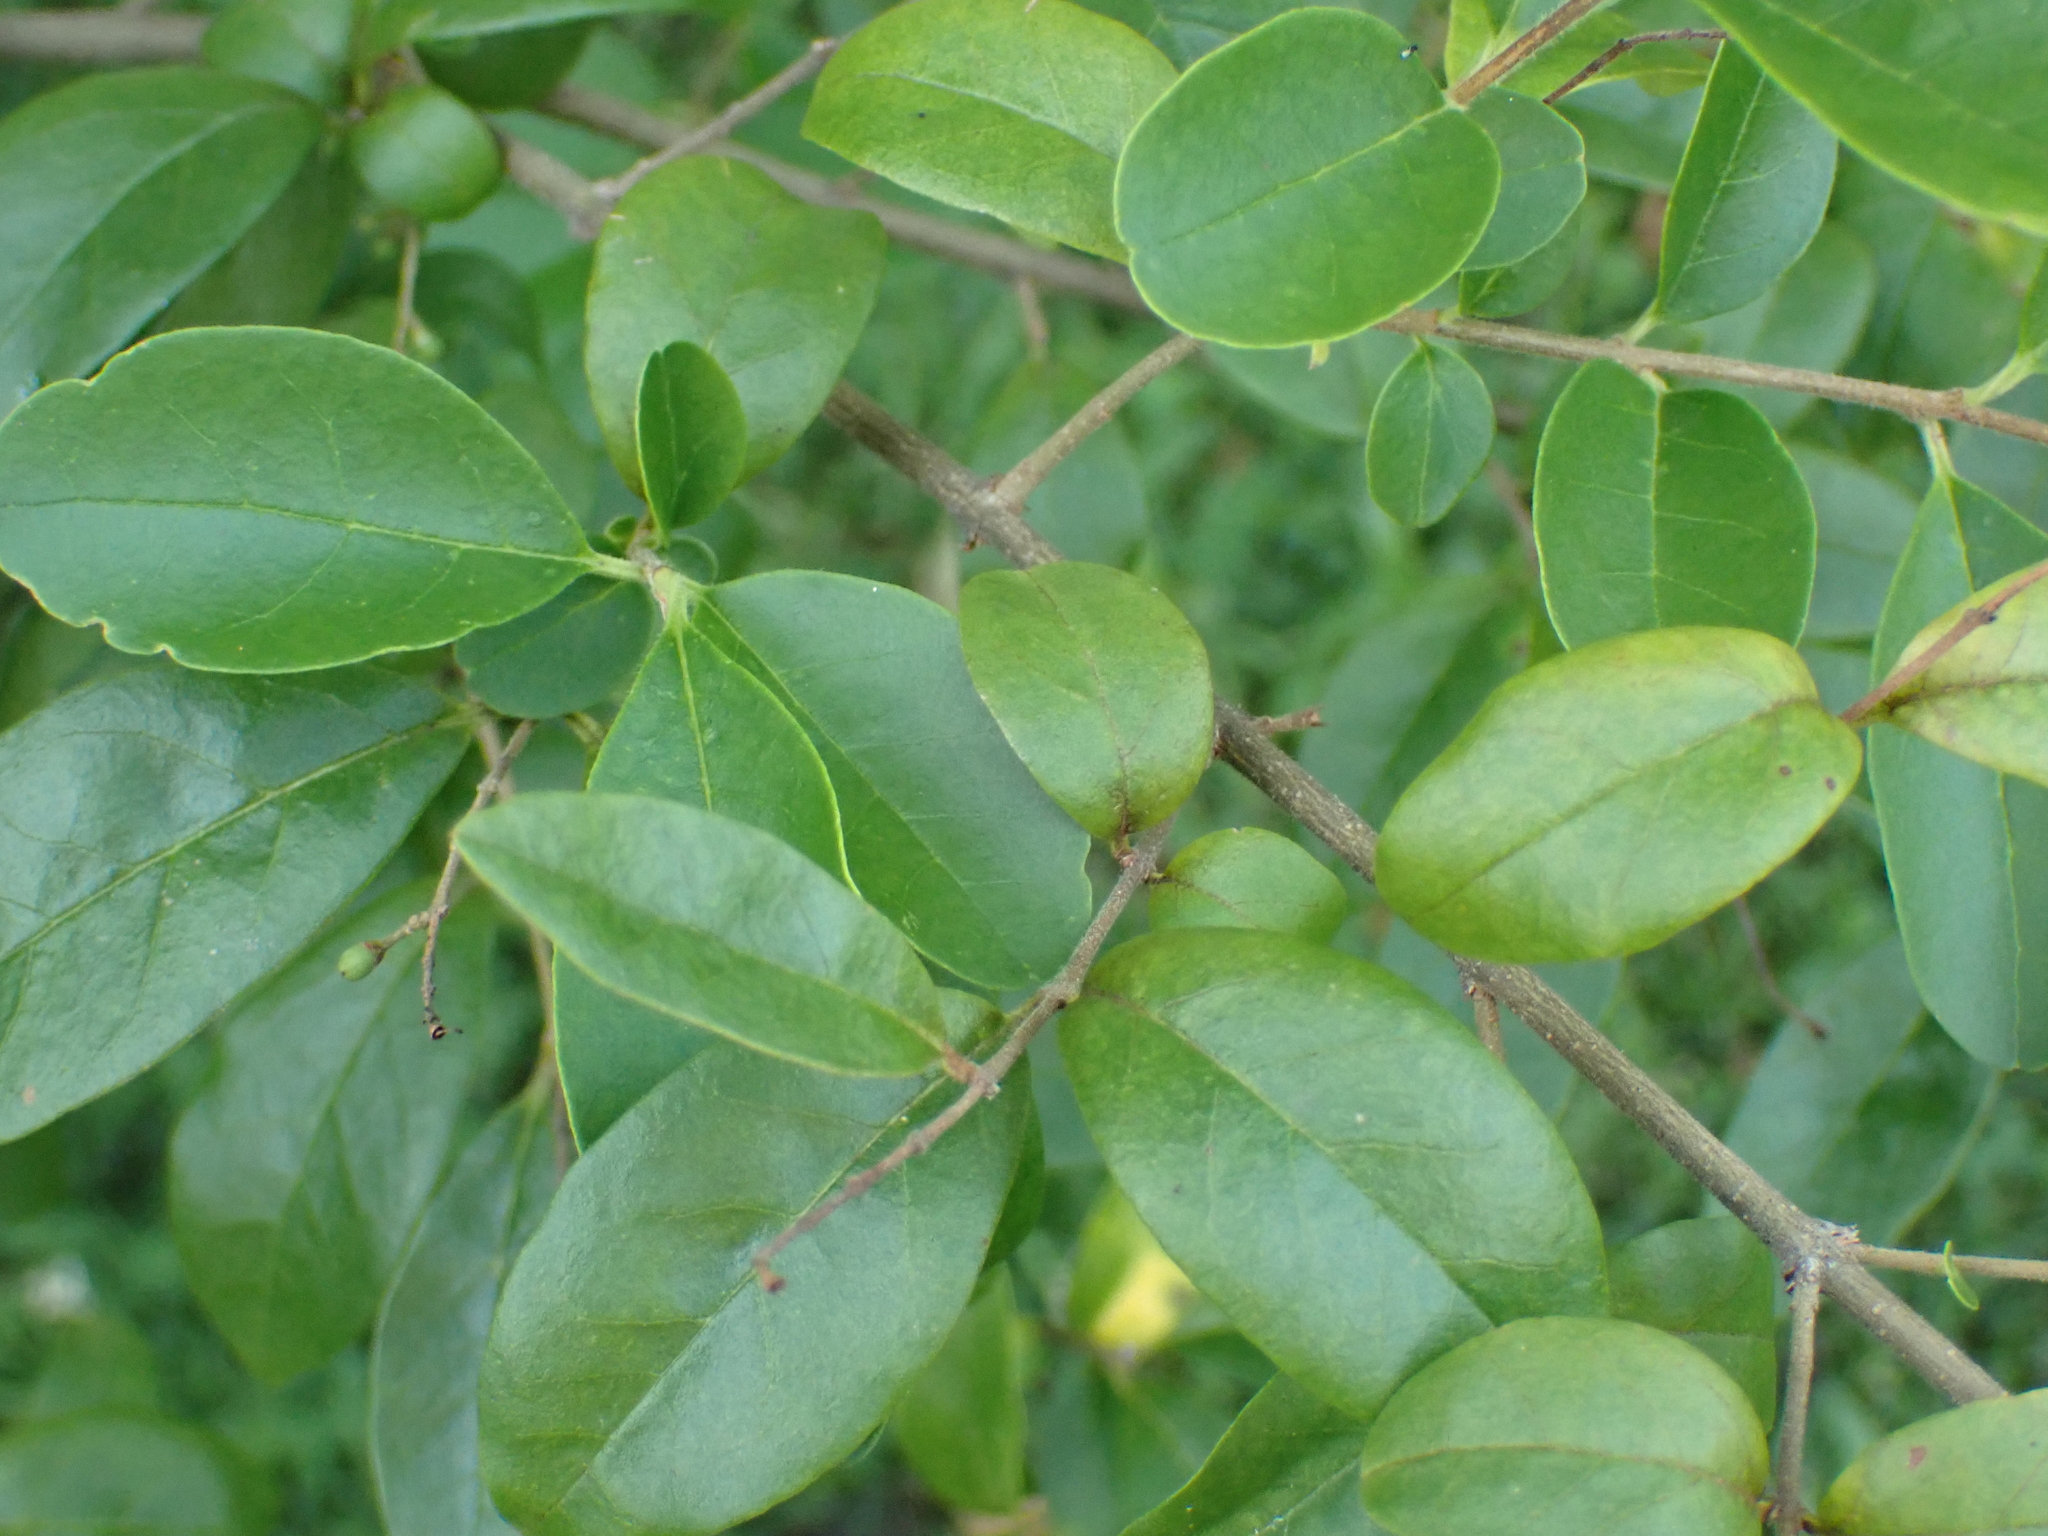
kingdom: Plantae
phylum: Tracheophyta
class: Magnoliopsida
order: Lamiales
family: Oleaceae
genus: Ligustrum
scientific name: Ligustrum sinense
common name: Chinese privet
